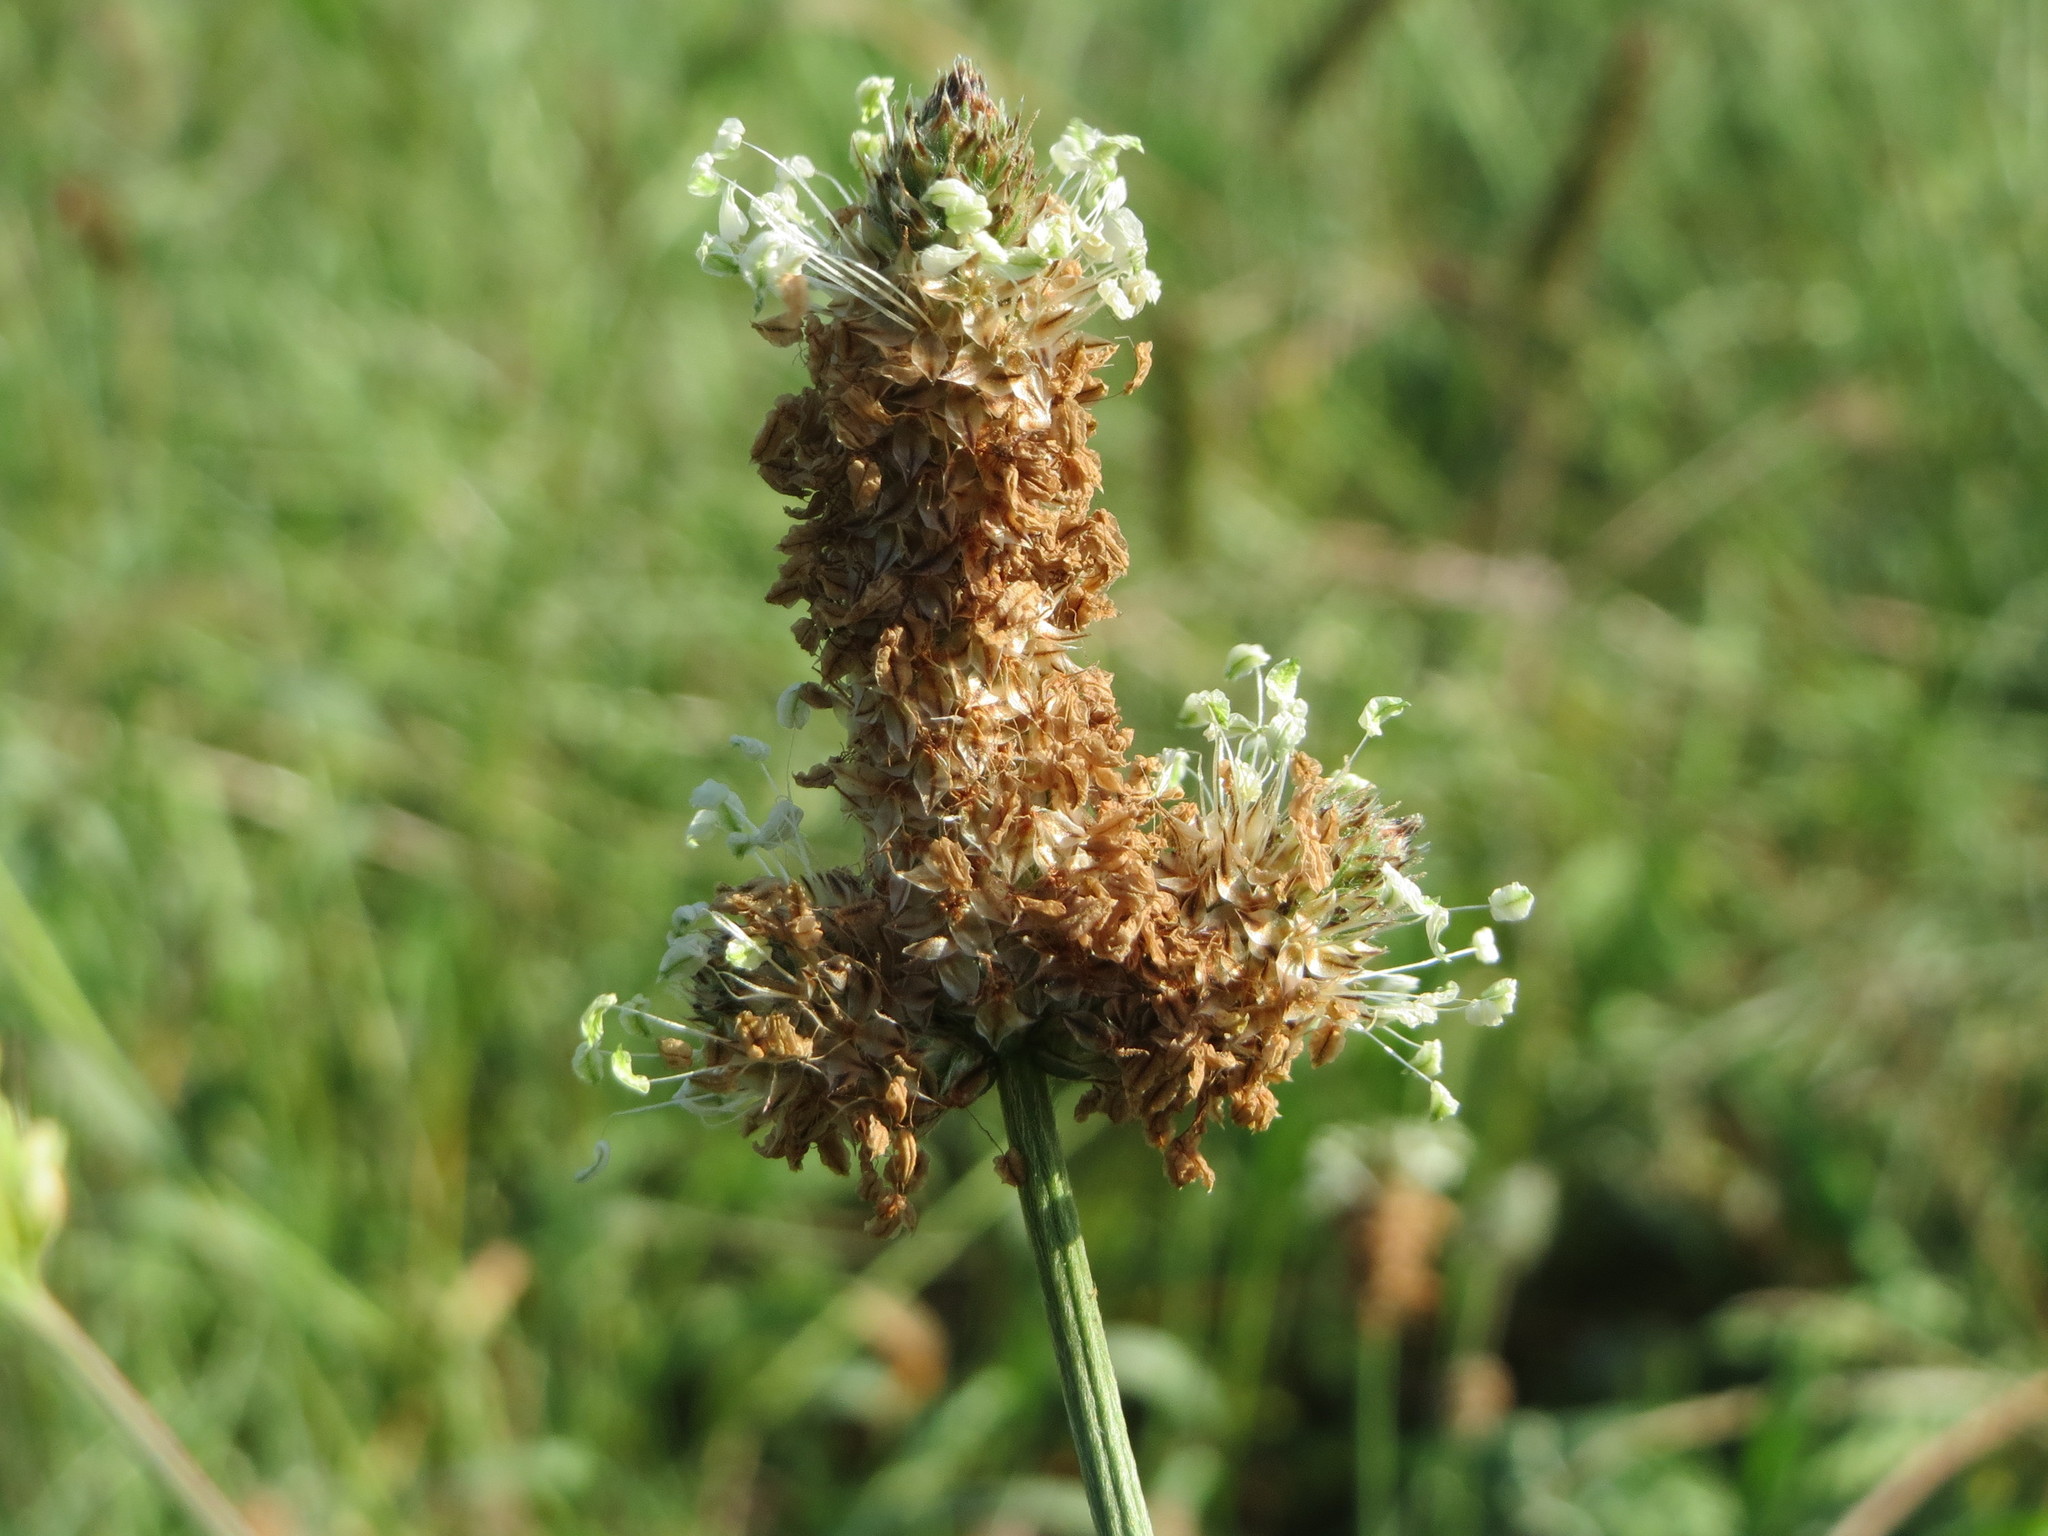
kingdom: Plantae
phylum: Tracheophyta
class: Magnoliopsida
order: Lamiales
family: Plantaginaceae
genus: Plantago
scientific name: Plantago lanceolata
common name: Ribwort plantain
